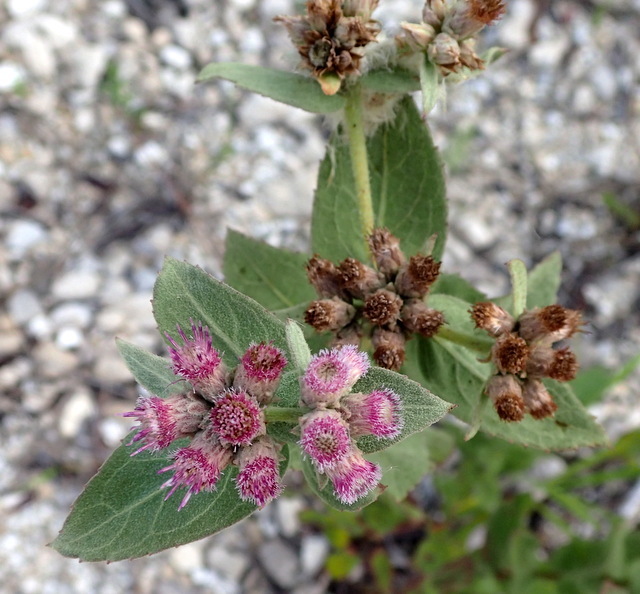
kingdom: Plantae
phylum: Tracheophyta
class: Magnoliopsida
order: Asterales
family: Asteraceae
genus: Pluchea
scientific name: Pluchea baccharis
